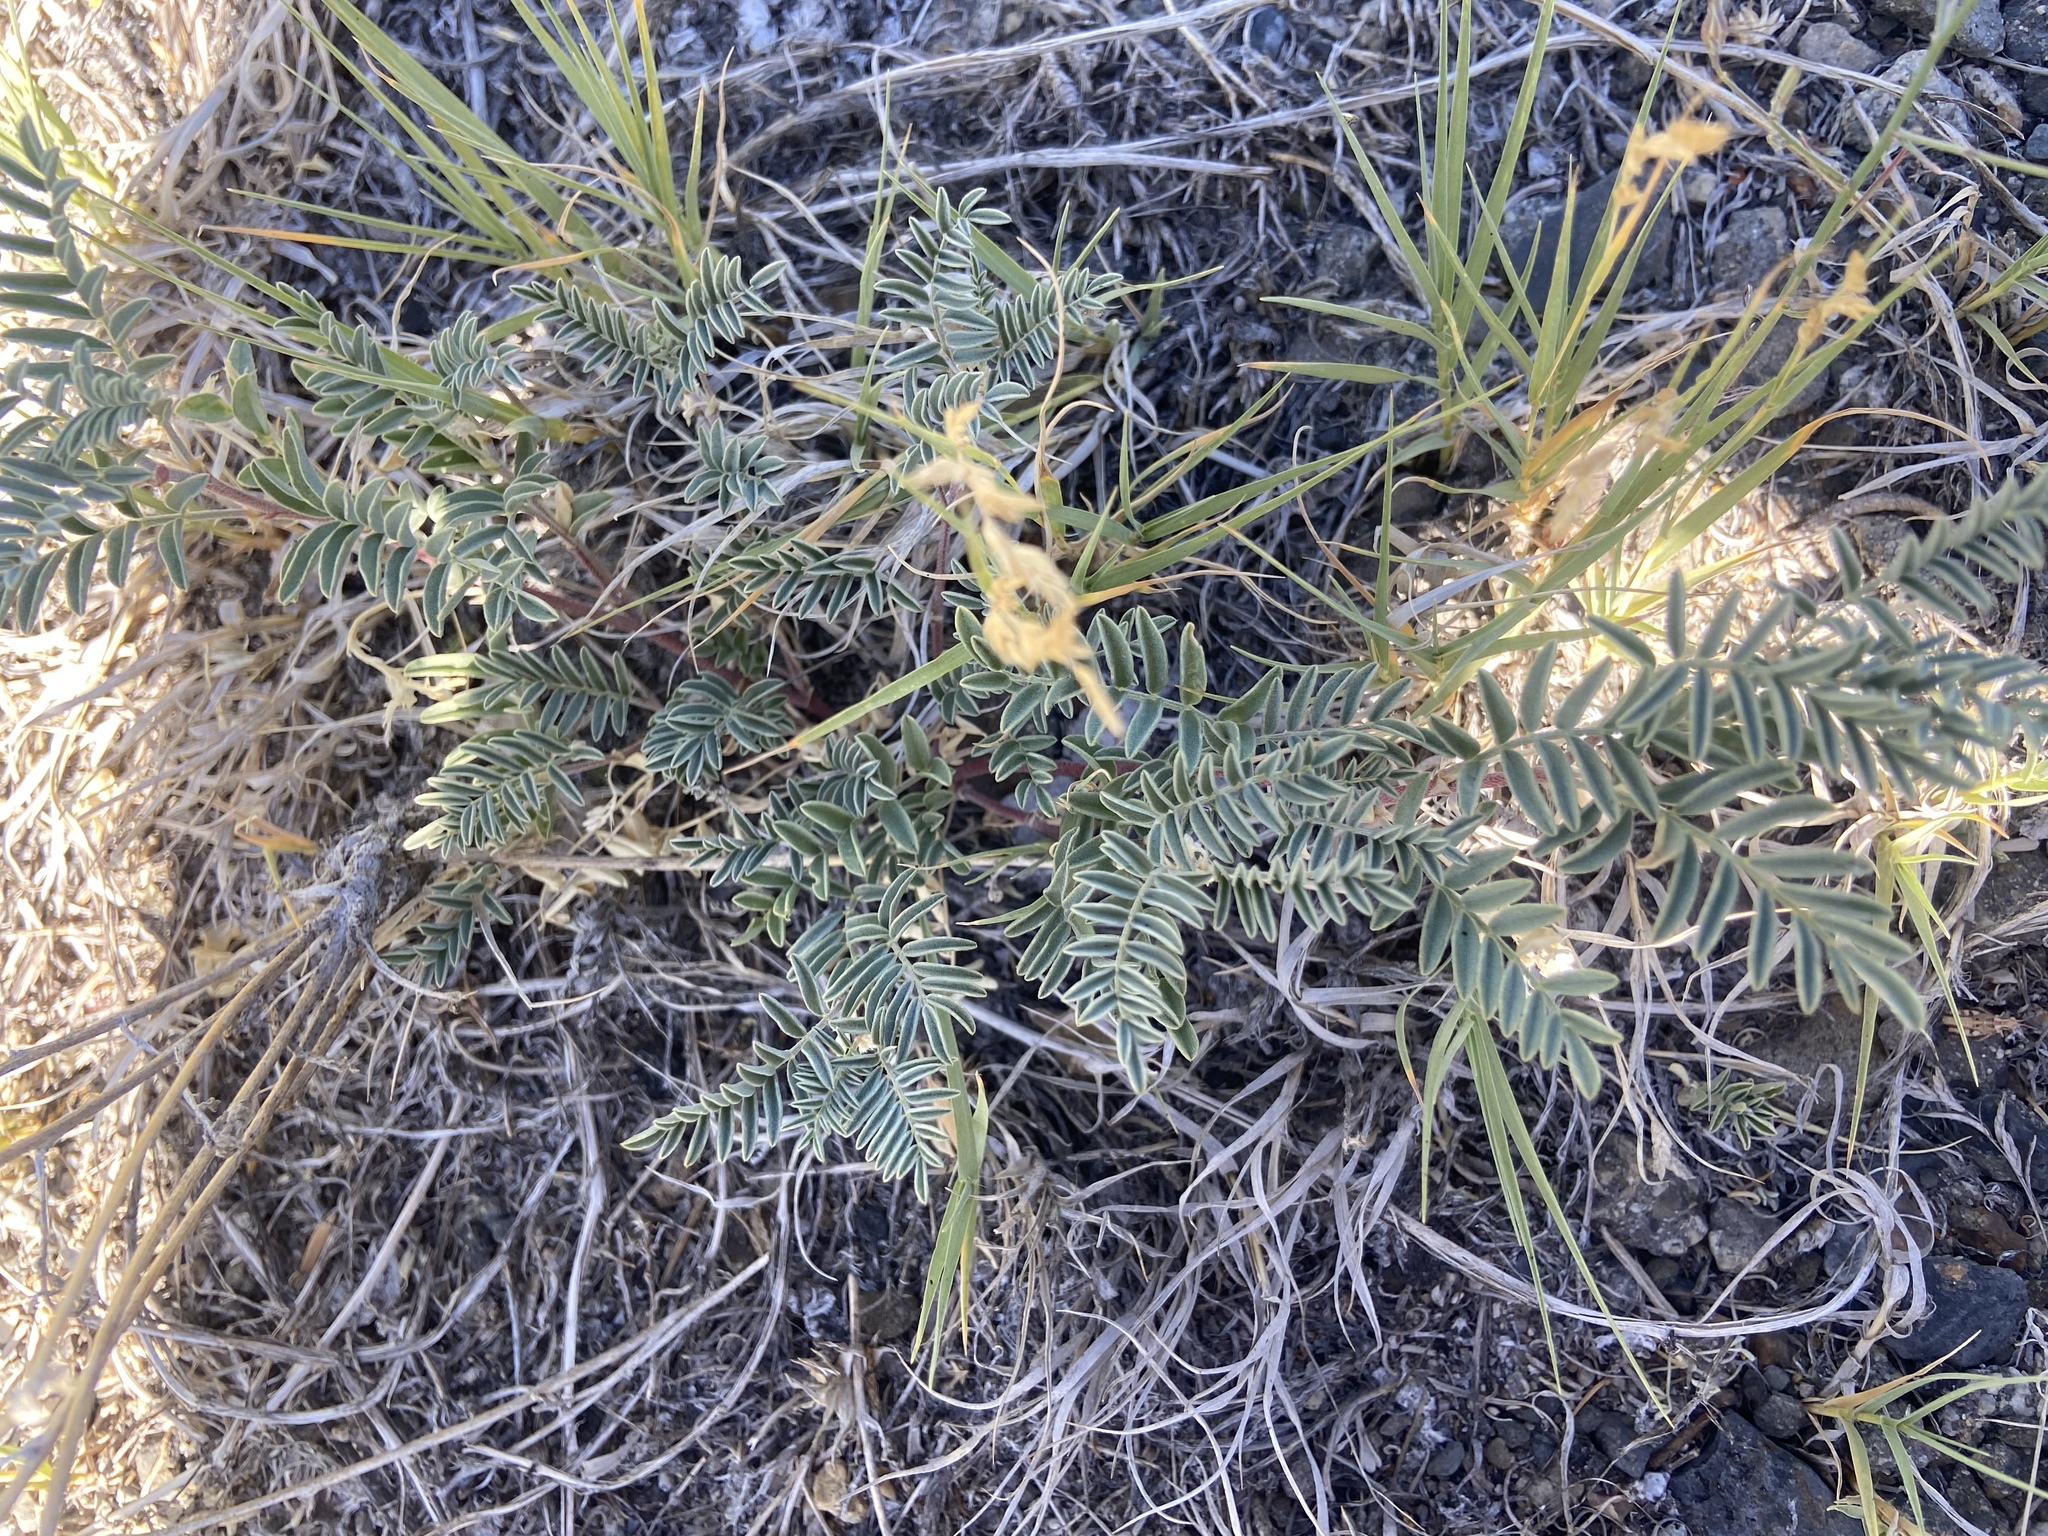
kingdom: Plantae
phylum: Tracheophyta
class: Magnoliopsida
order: Fabales
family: Fabaceae
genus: Astragalus
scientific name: Astragalus lentiginosus
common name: Freckled milkvetch
